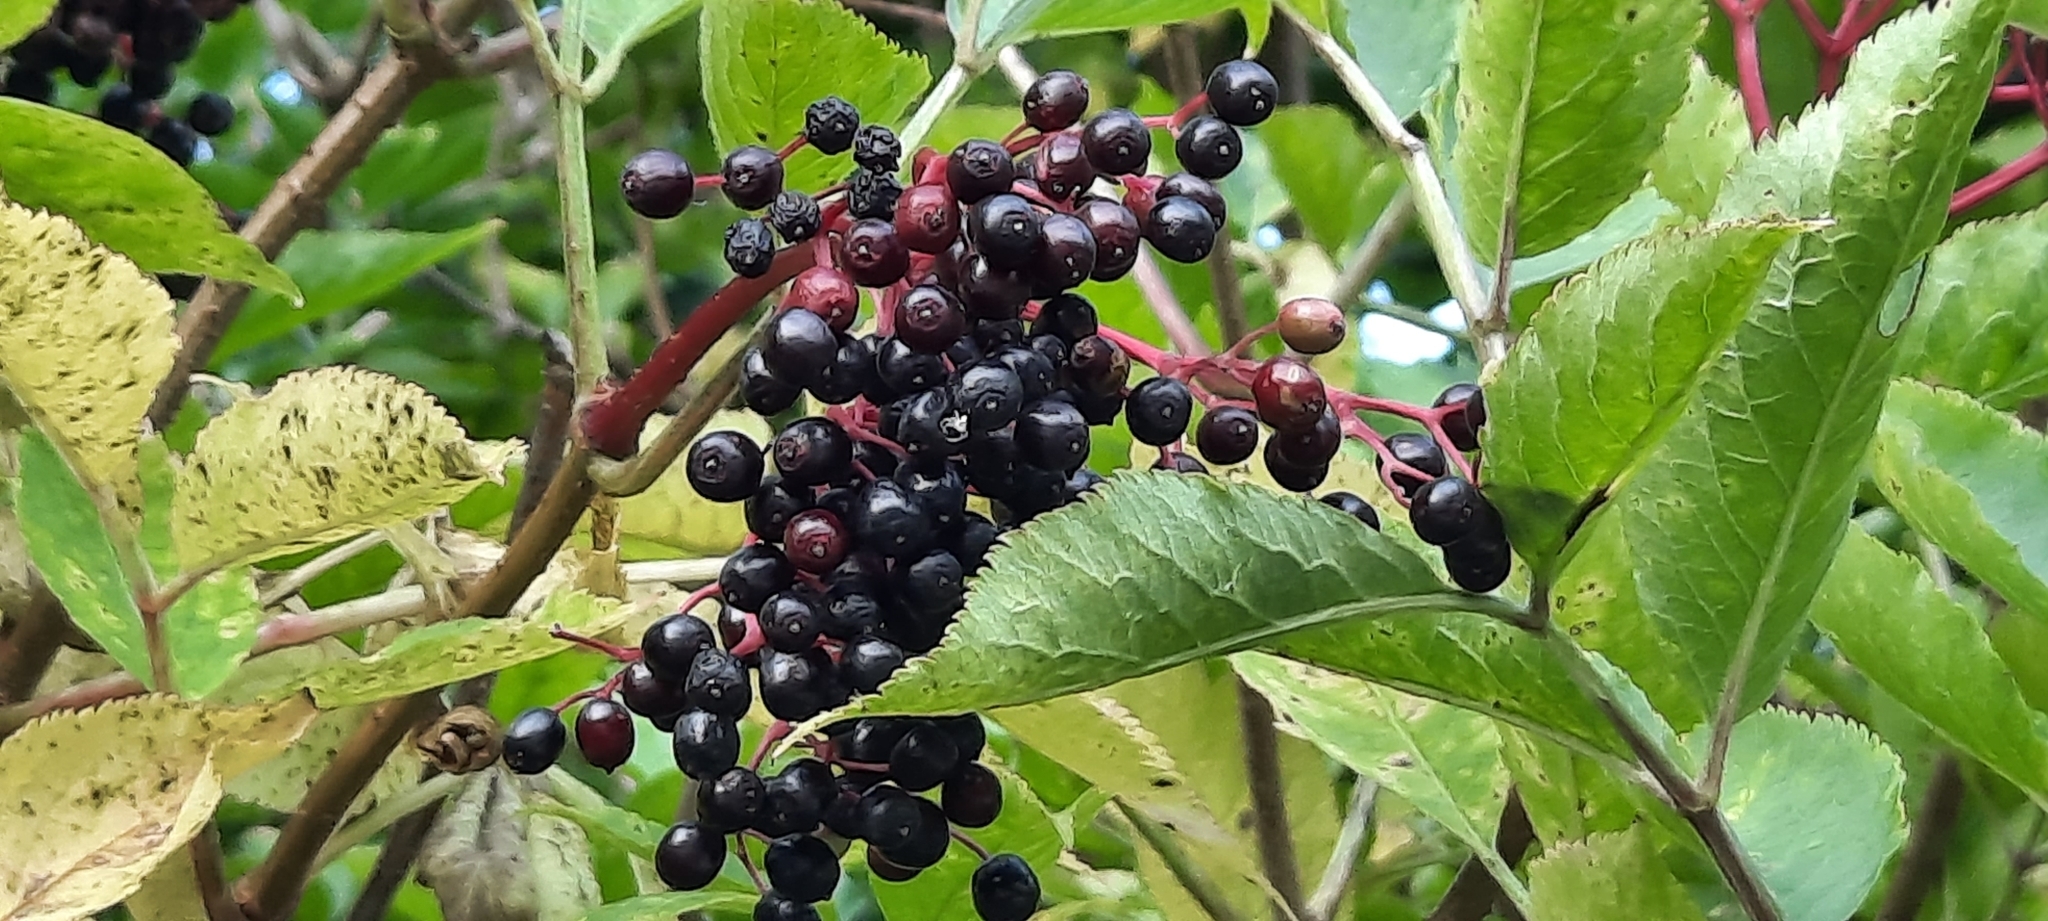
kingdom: Plantae
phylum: Tracheophyta
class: Magnoliopsida
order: Dipsacales
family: Viburnaceae
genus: Sambucus
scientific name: Sambucus nigra
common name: Elder
